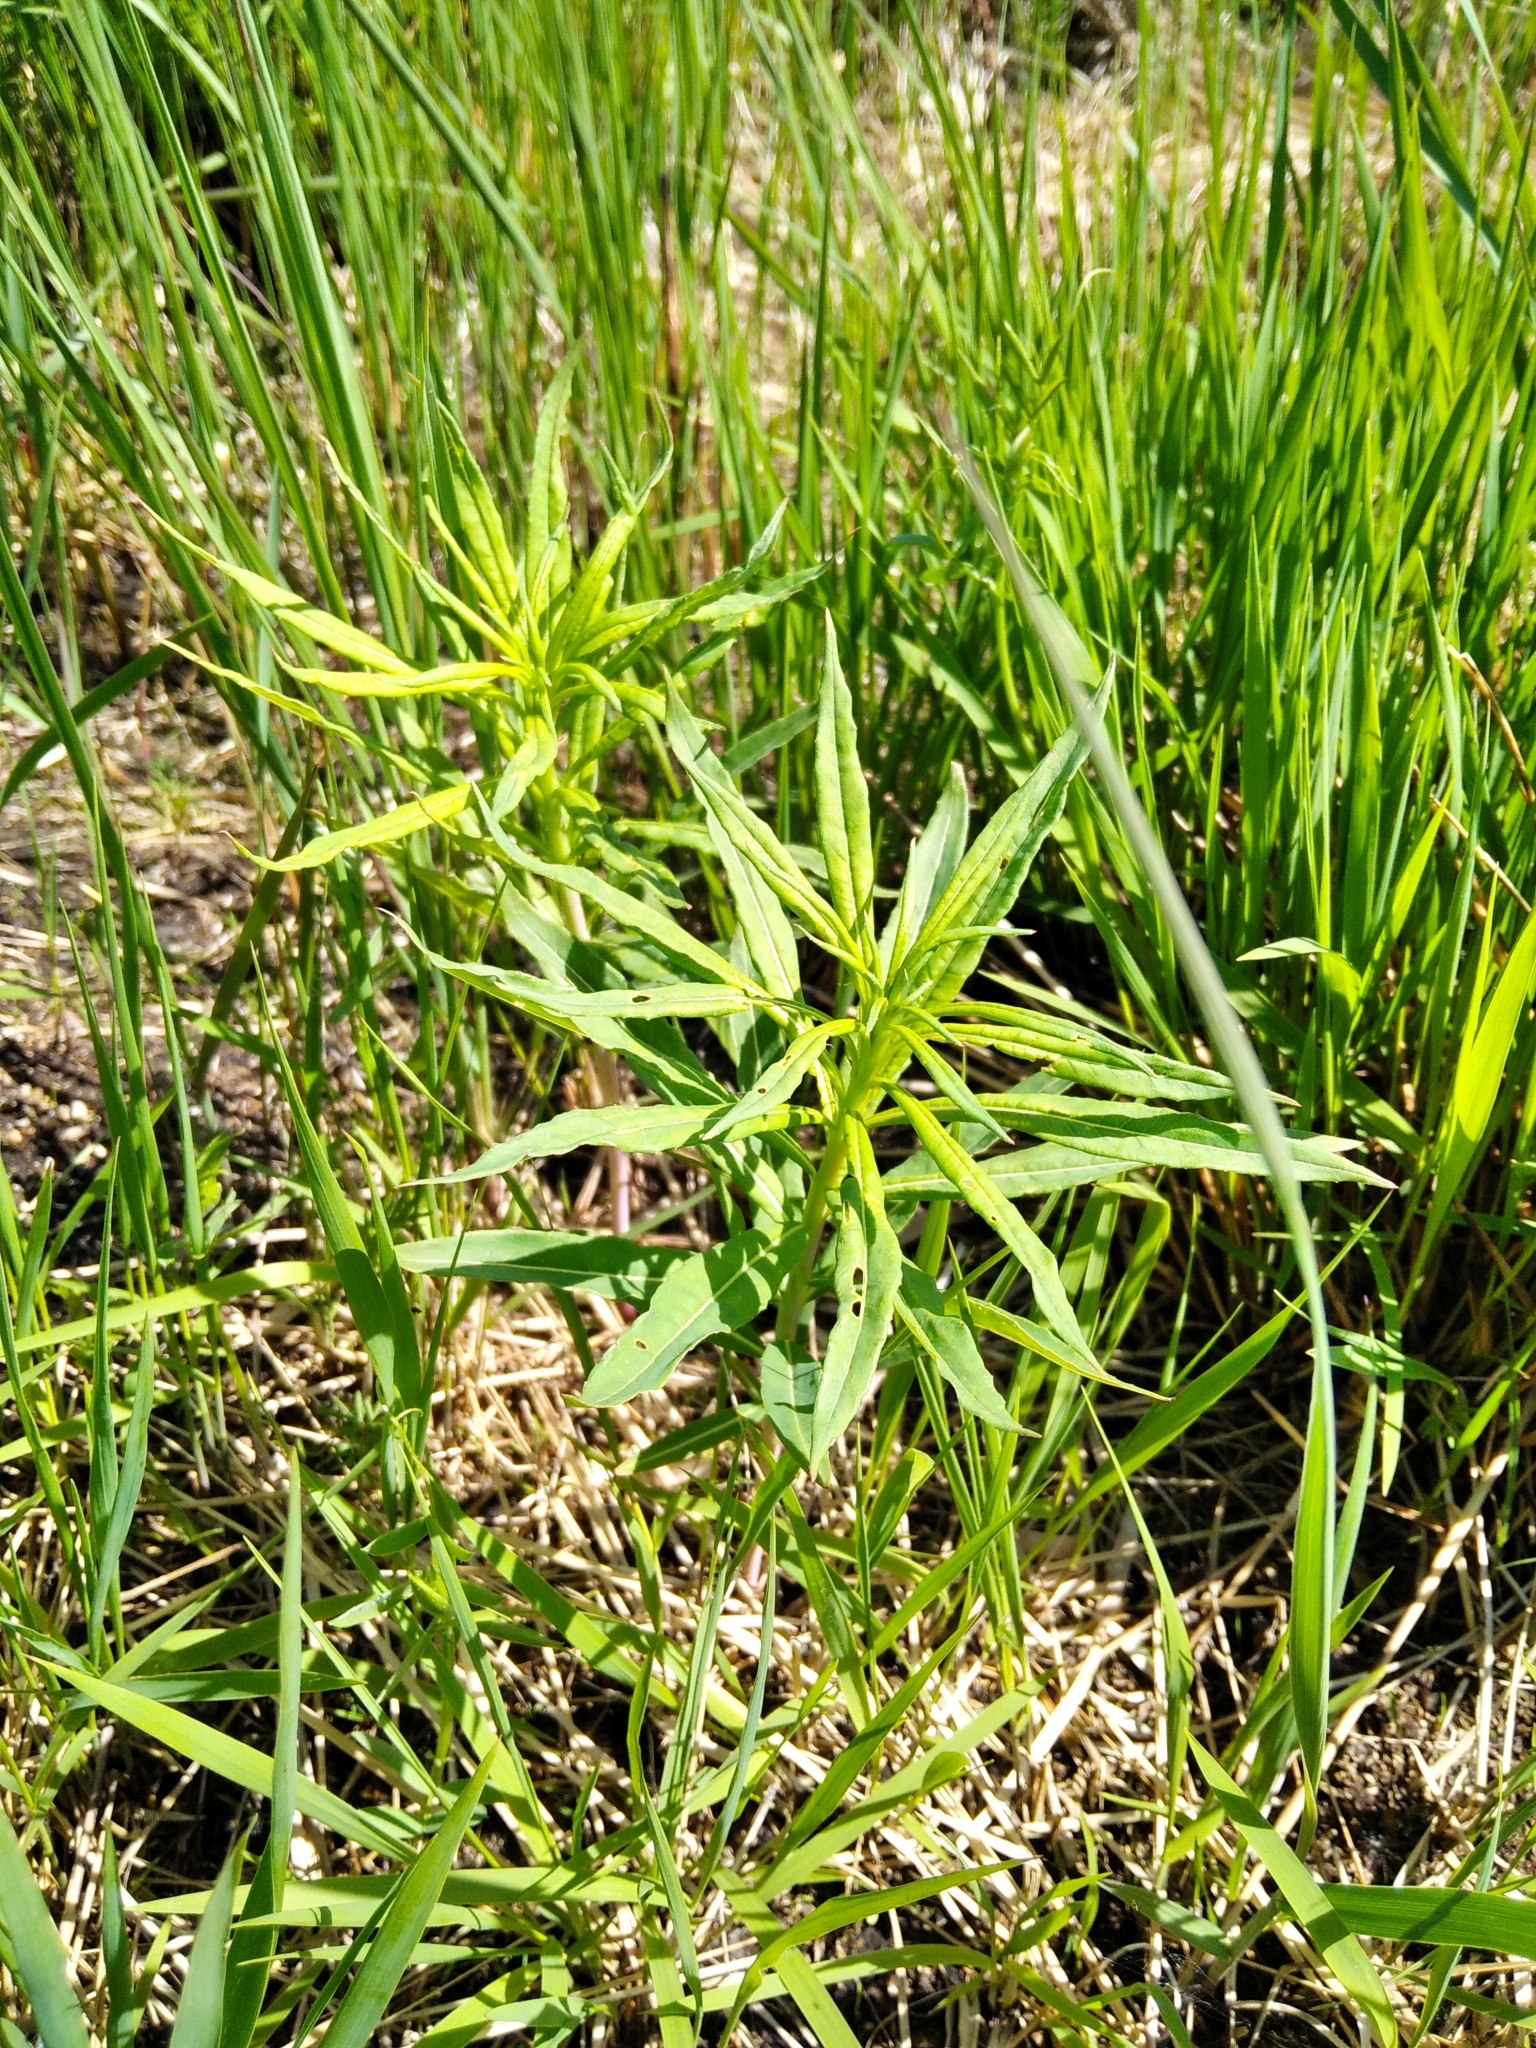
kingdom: Plantae
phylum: Tracheophyta
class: Magnoliopsida
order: Myrtales
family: Onagraceae
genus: Chamaenerion
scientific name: Chamaenerion angustifolium
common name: Fireweed
